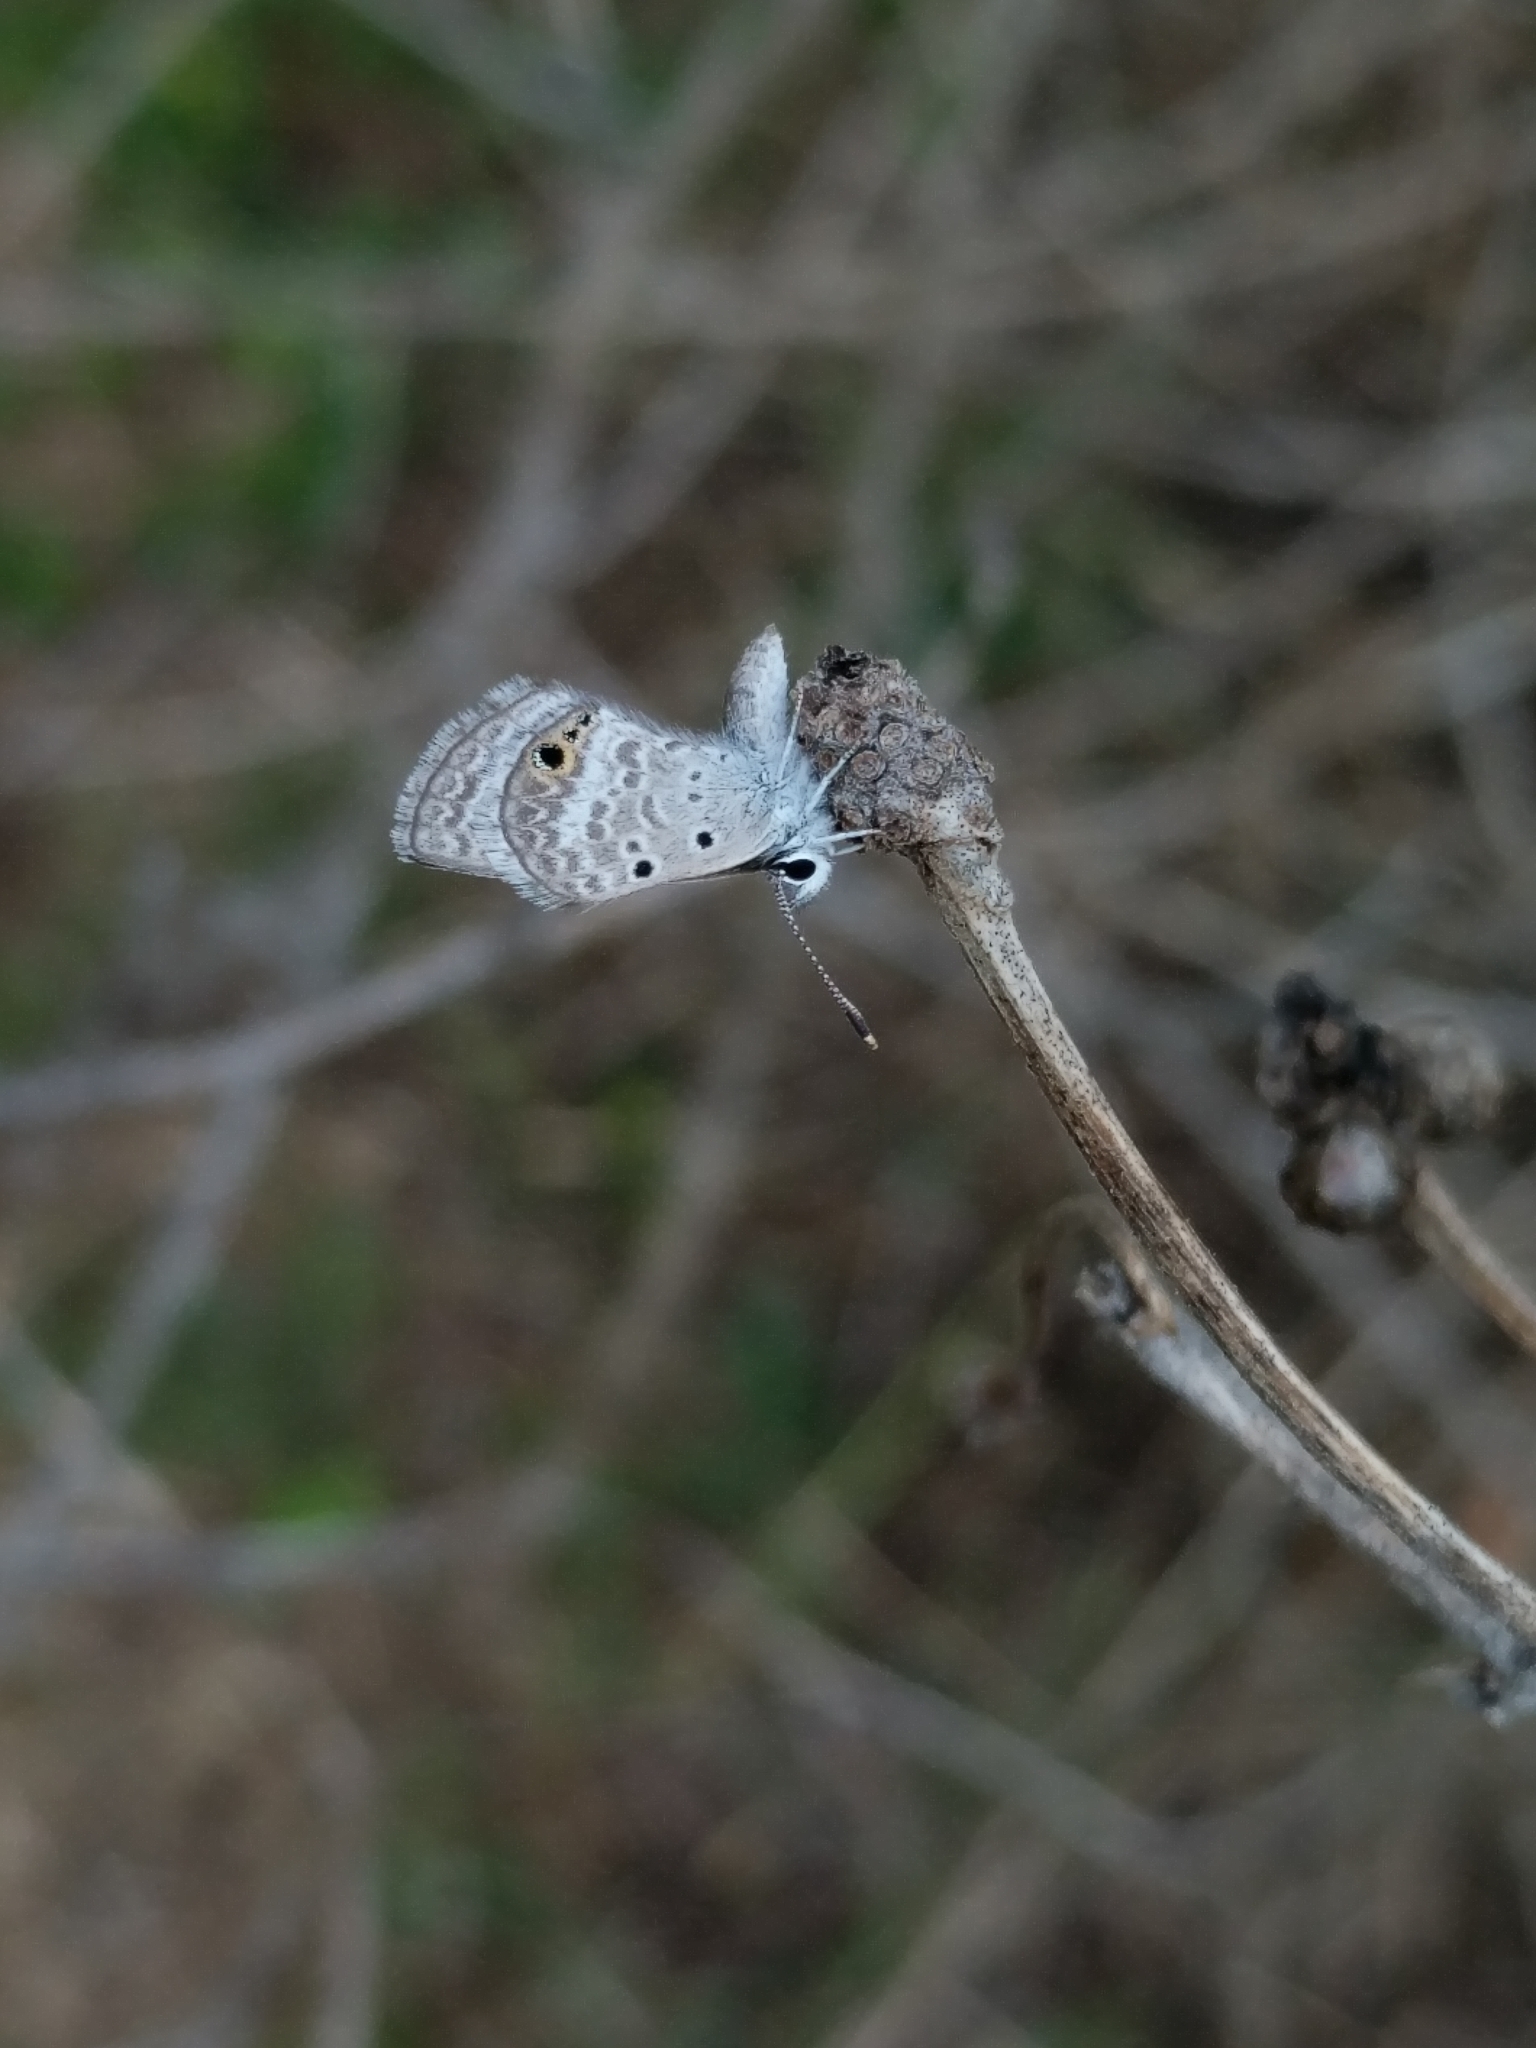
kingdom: Animalia
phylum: Arthropoda
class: Insecta
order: Lepidoptera
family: Lycaenidae
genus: Echinargus
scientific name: Echinargus isola
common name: Reakirt's blue
